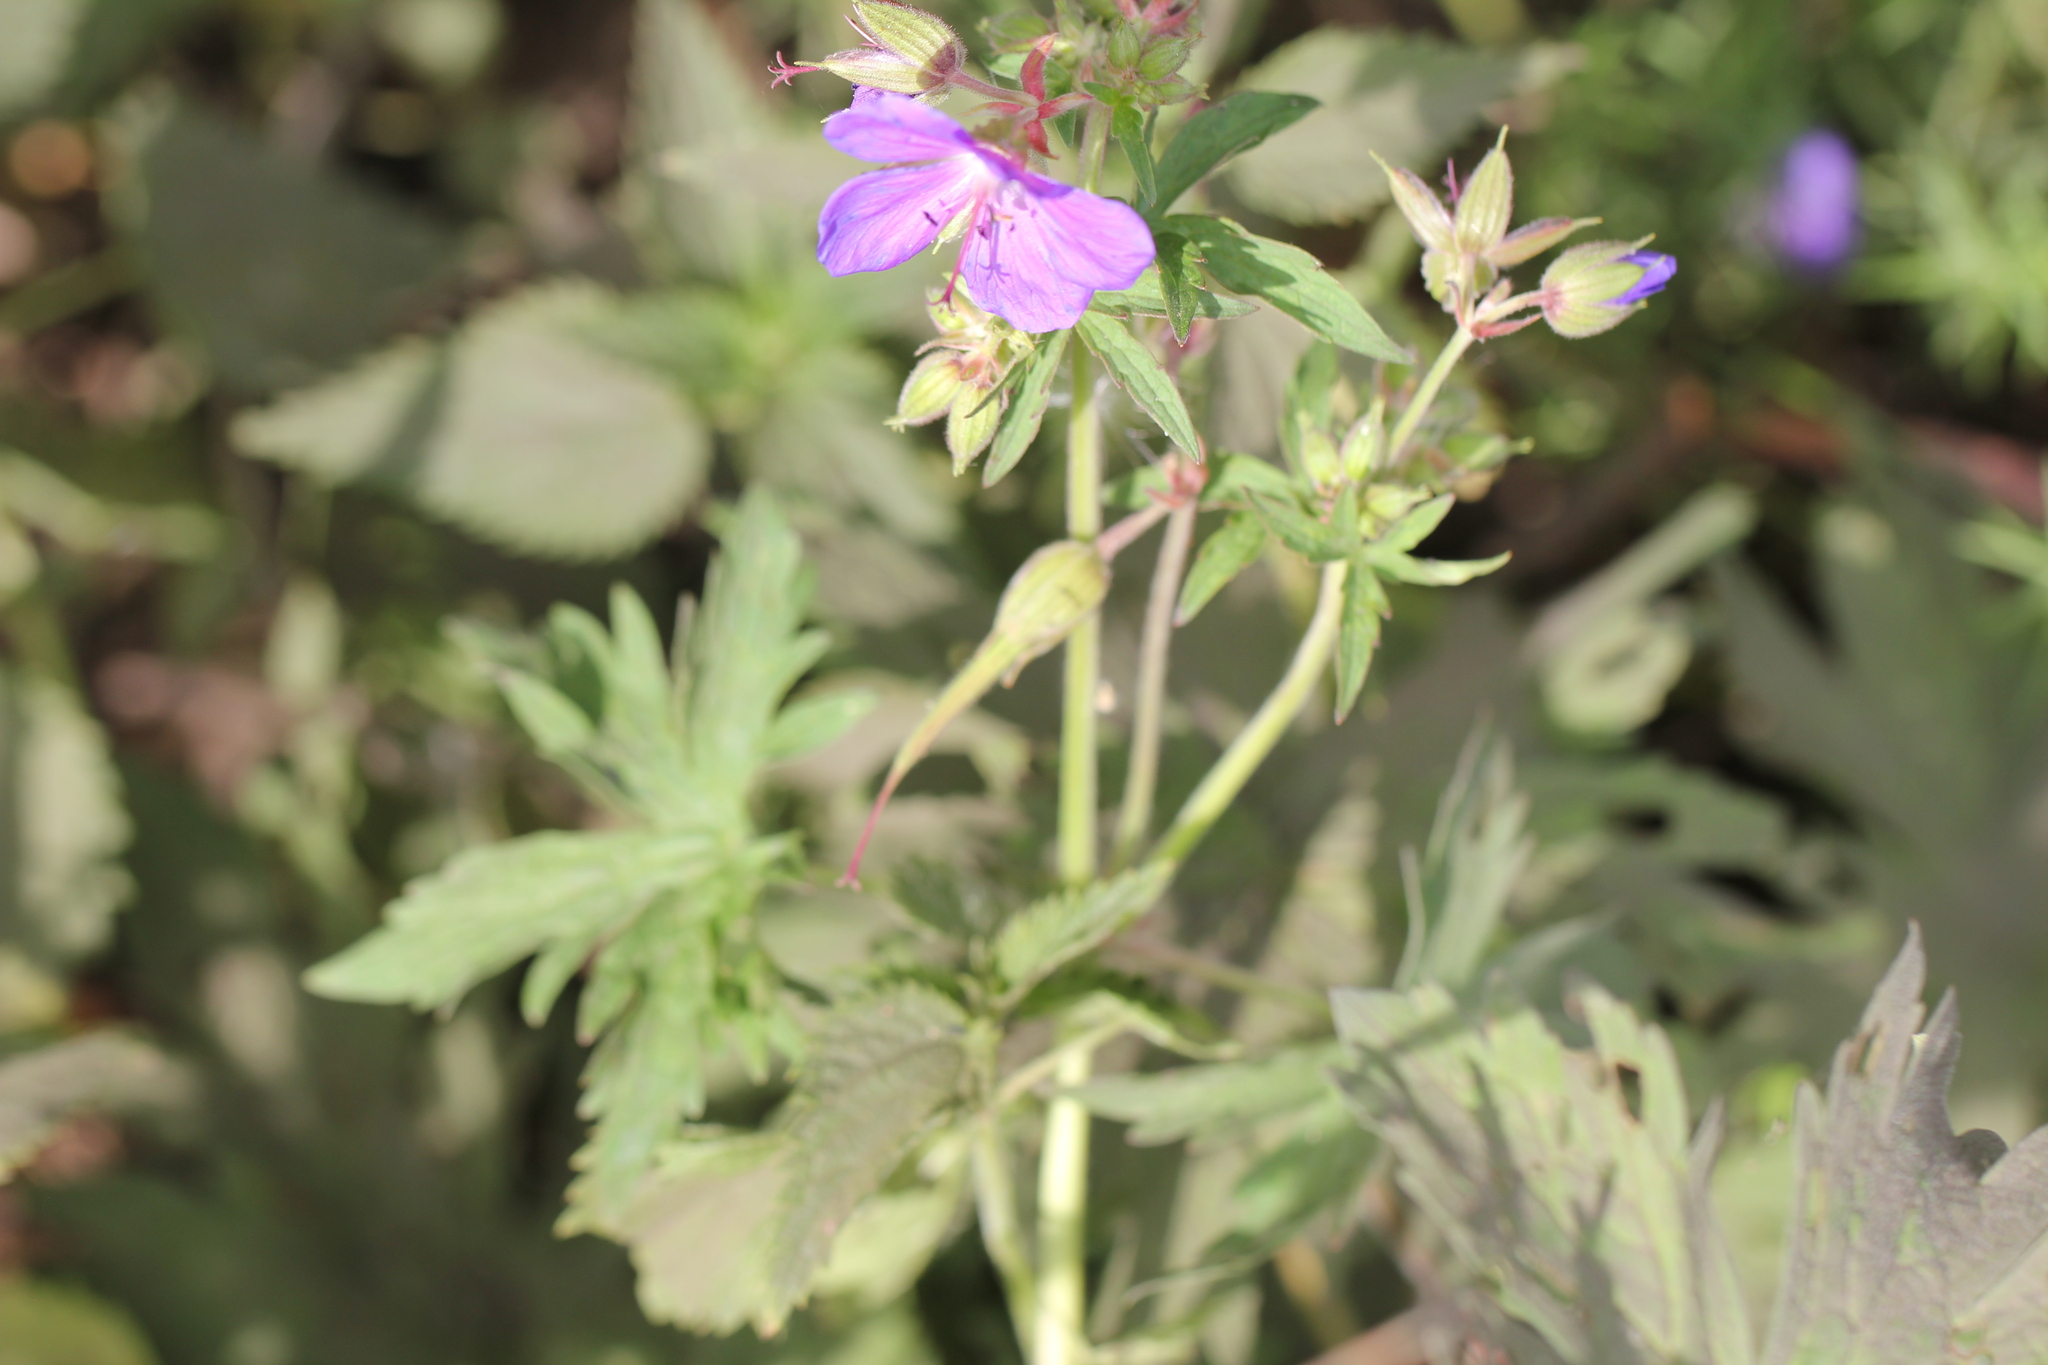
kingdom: Plantae
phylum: Tracheophyta
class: Magnoliopsida
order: Geraniales
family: Geraniaceae
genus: Geranium
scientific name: Geranium pratense
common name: Meadow crane's-bill
